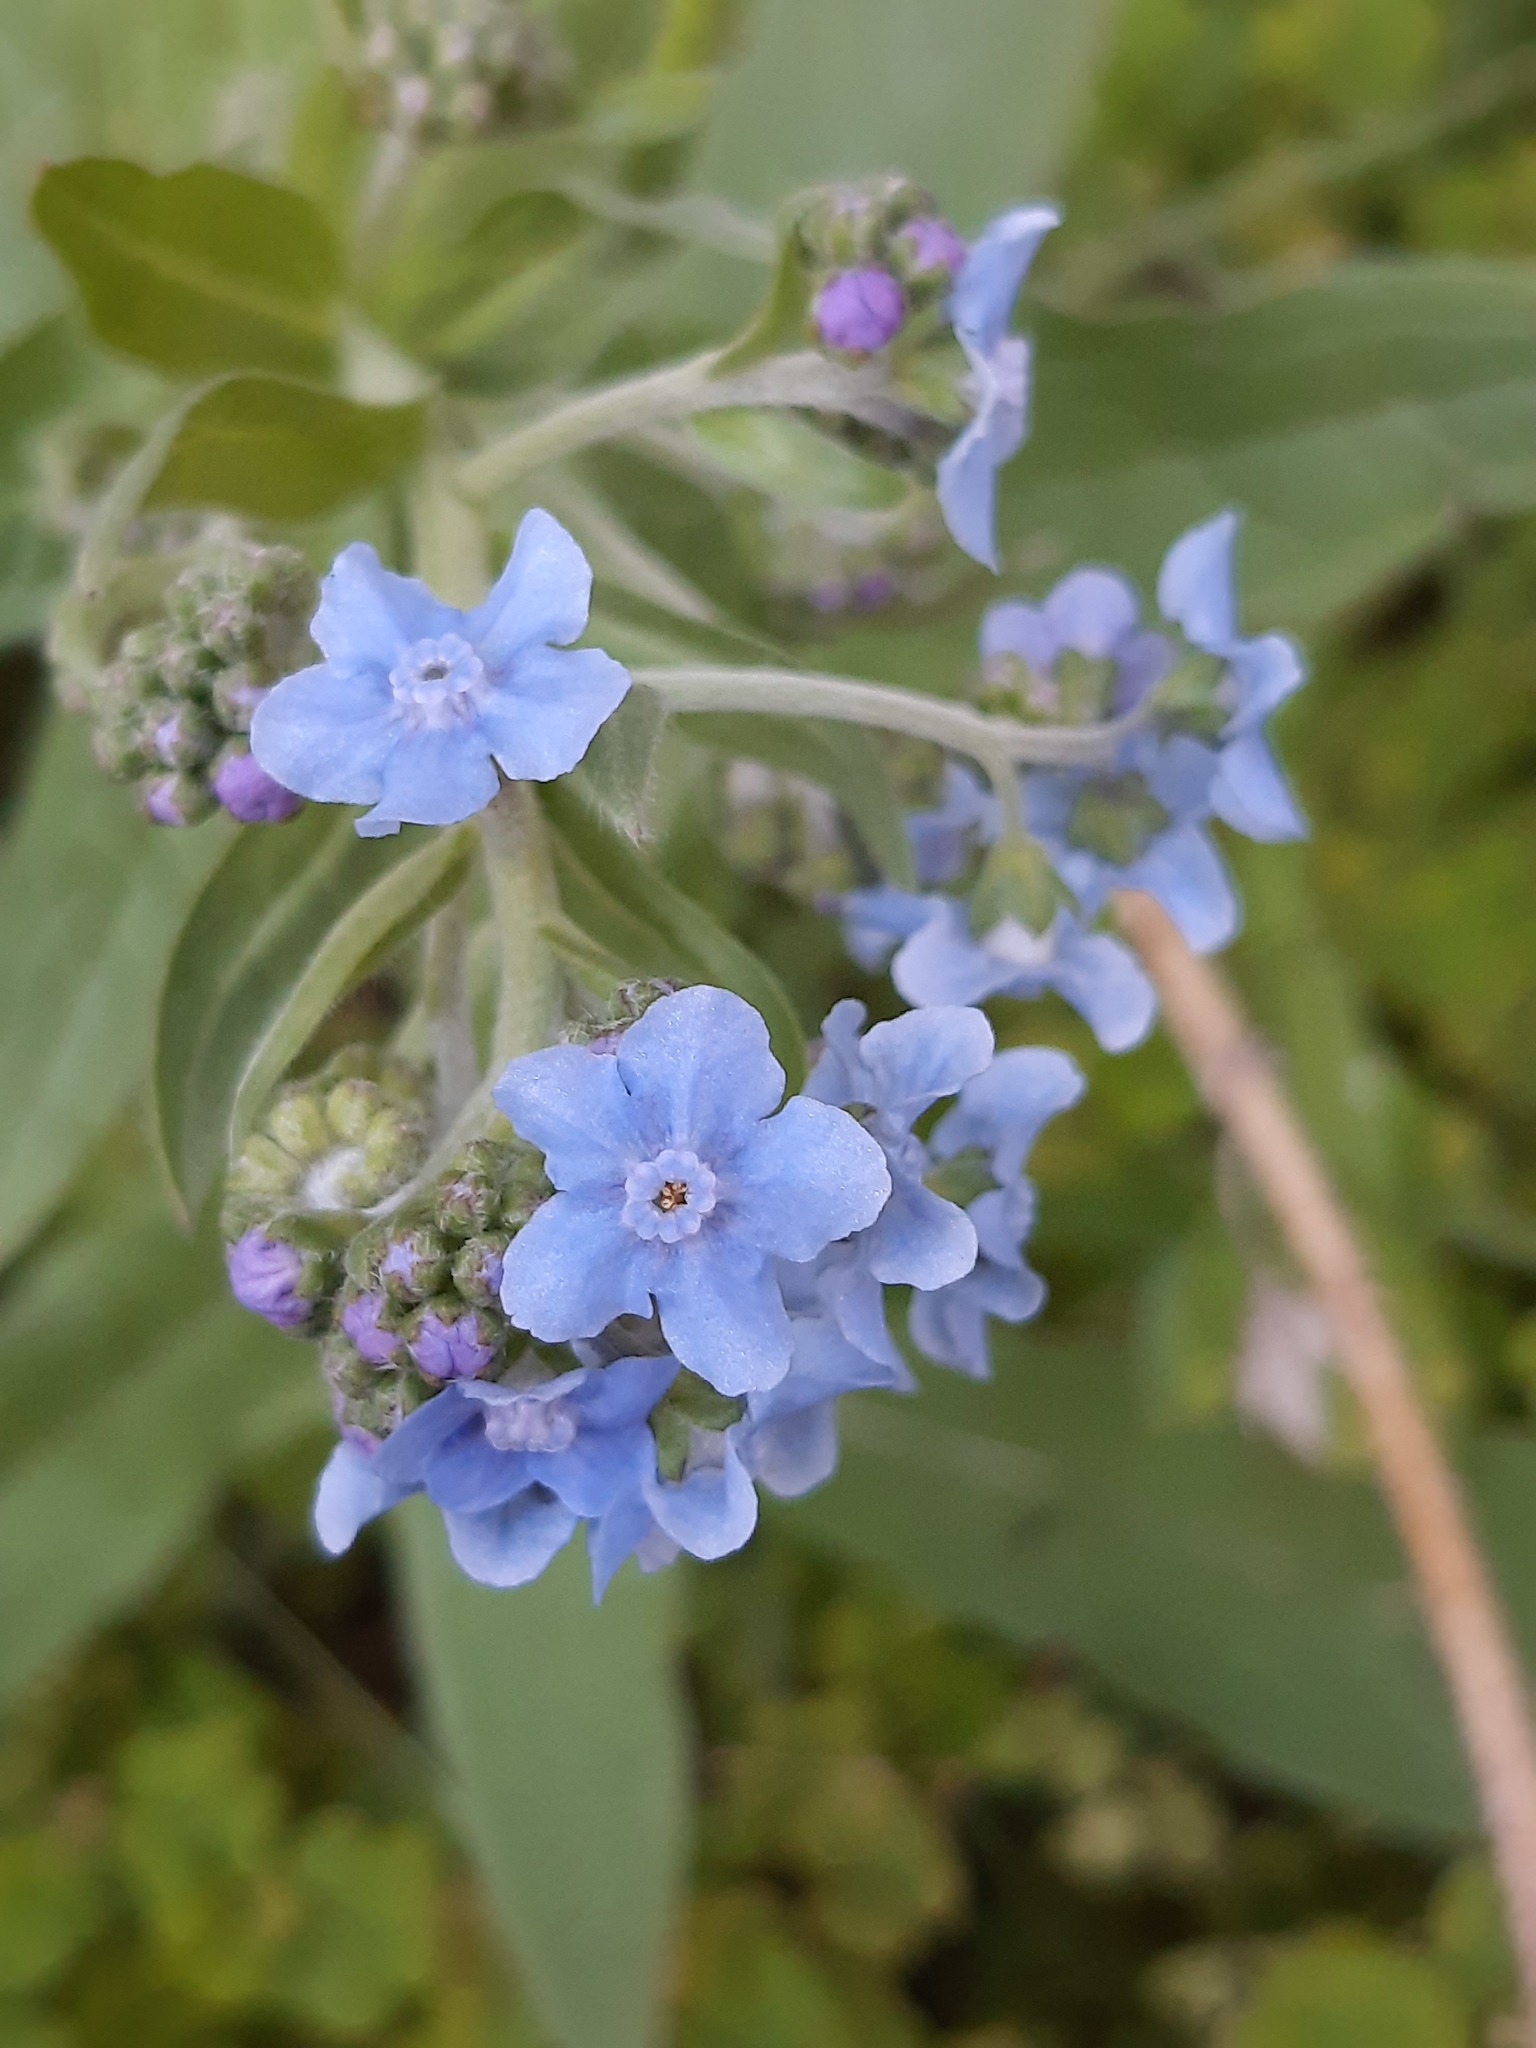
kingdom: Plantae
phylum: Tracheophyta
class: Magnoliopsida
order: Boraginales
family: Boraginaceae
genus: Cynoglossum
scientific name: Cynoglossum amabile
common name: Chinese hound's tongue
